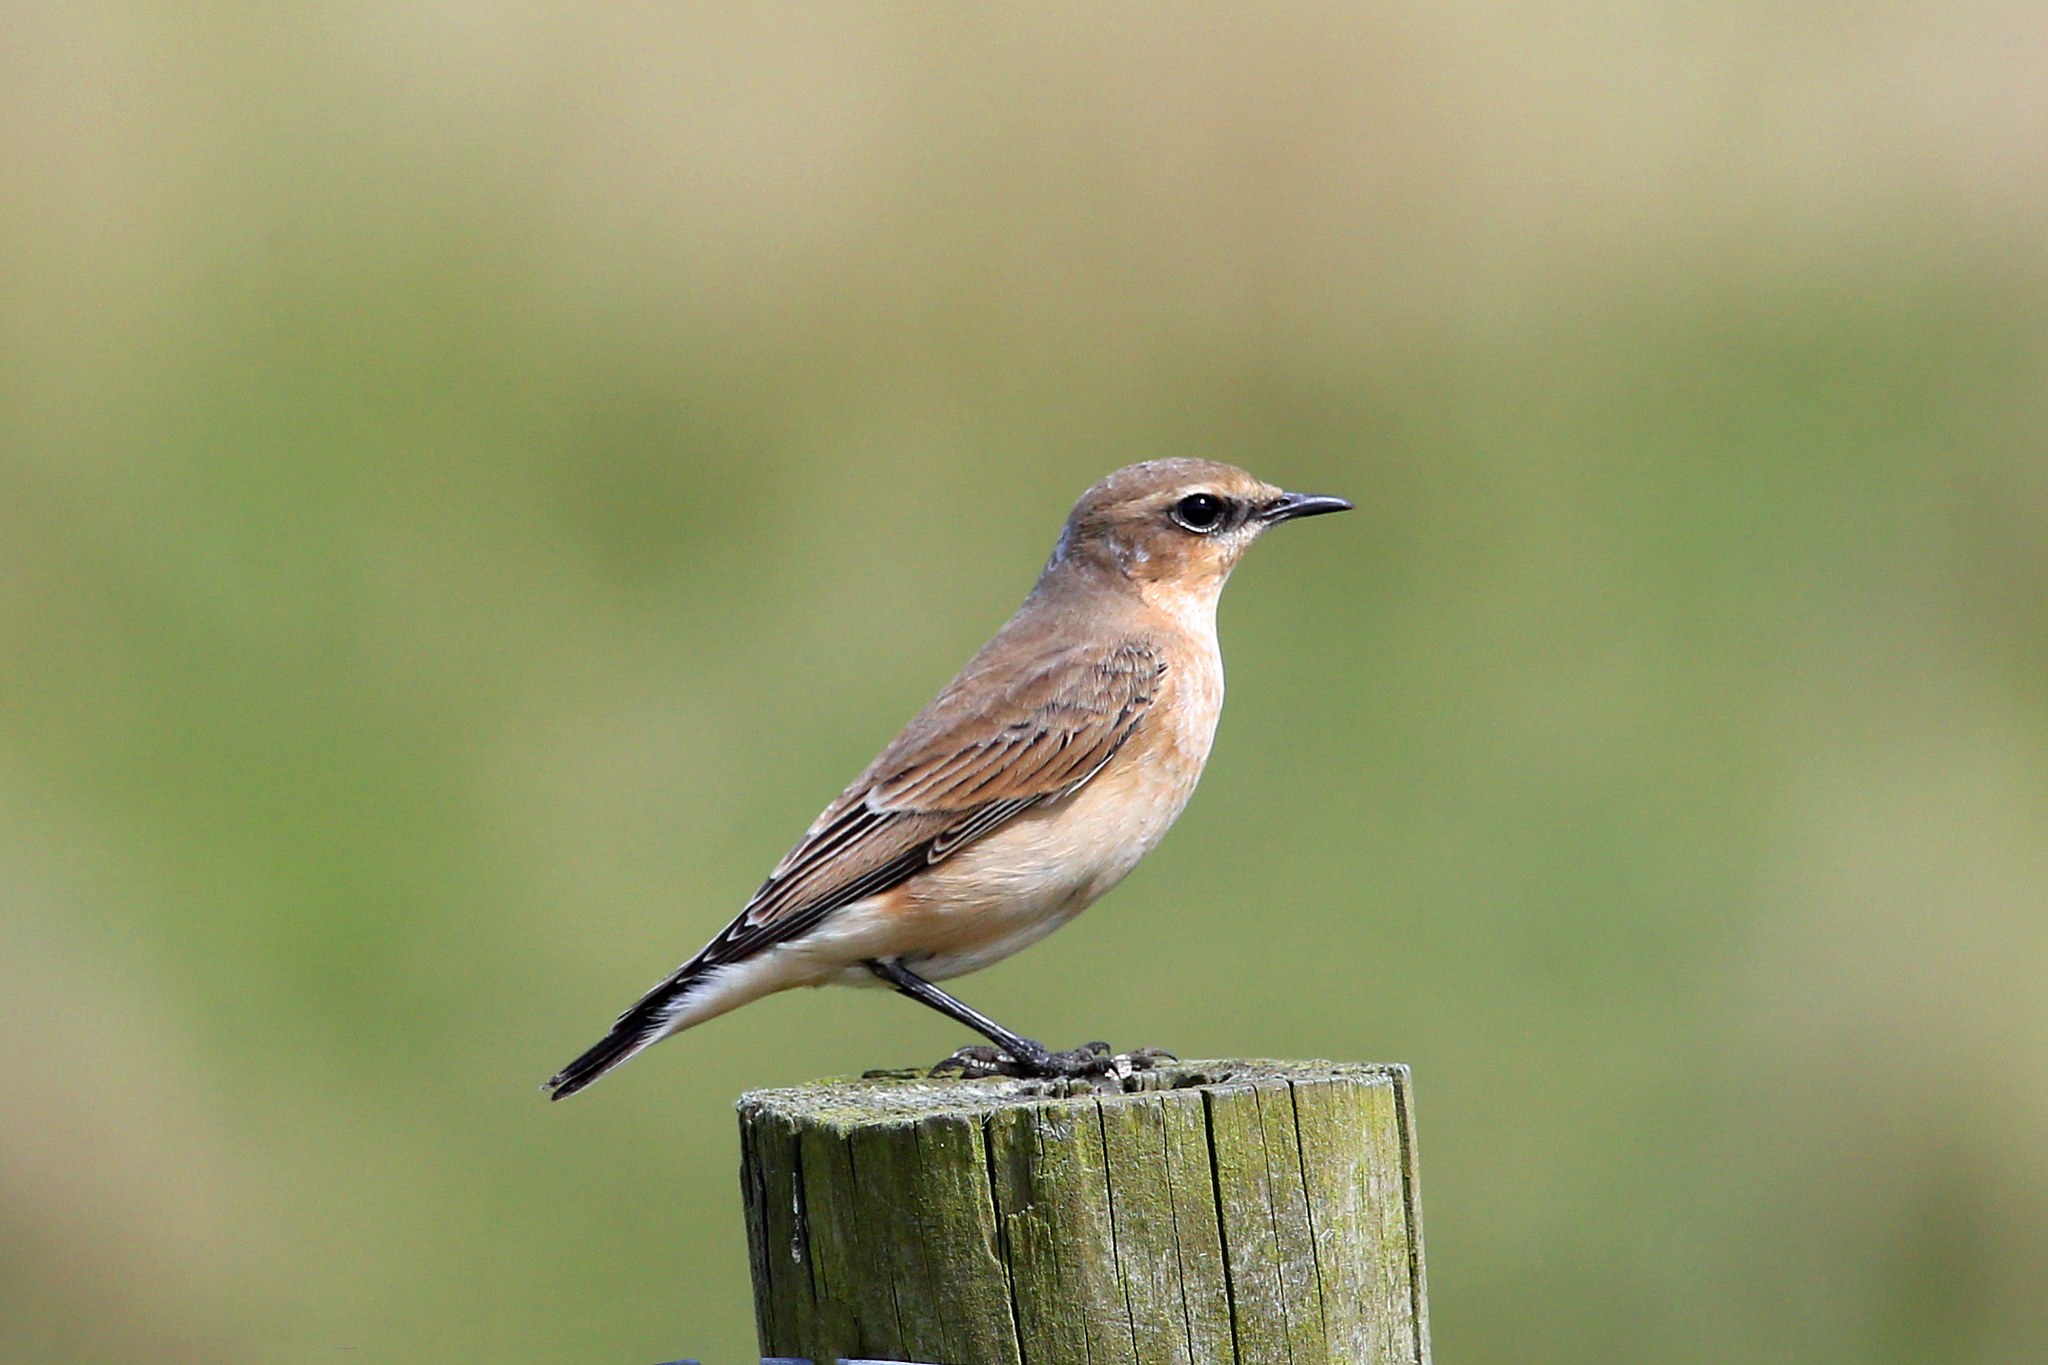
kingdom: Animalia
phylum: Chordata
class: Aves
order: Passeriformes
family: Muscicapidae
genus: Oenanthe
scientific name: Oenanthe oenanthe
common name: Northern wheatear
